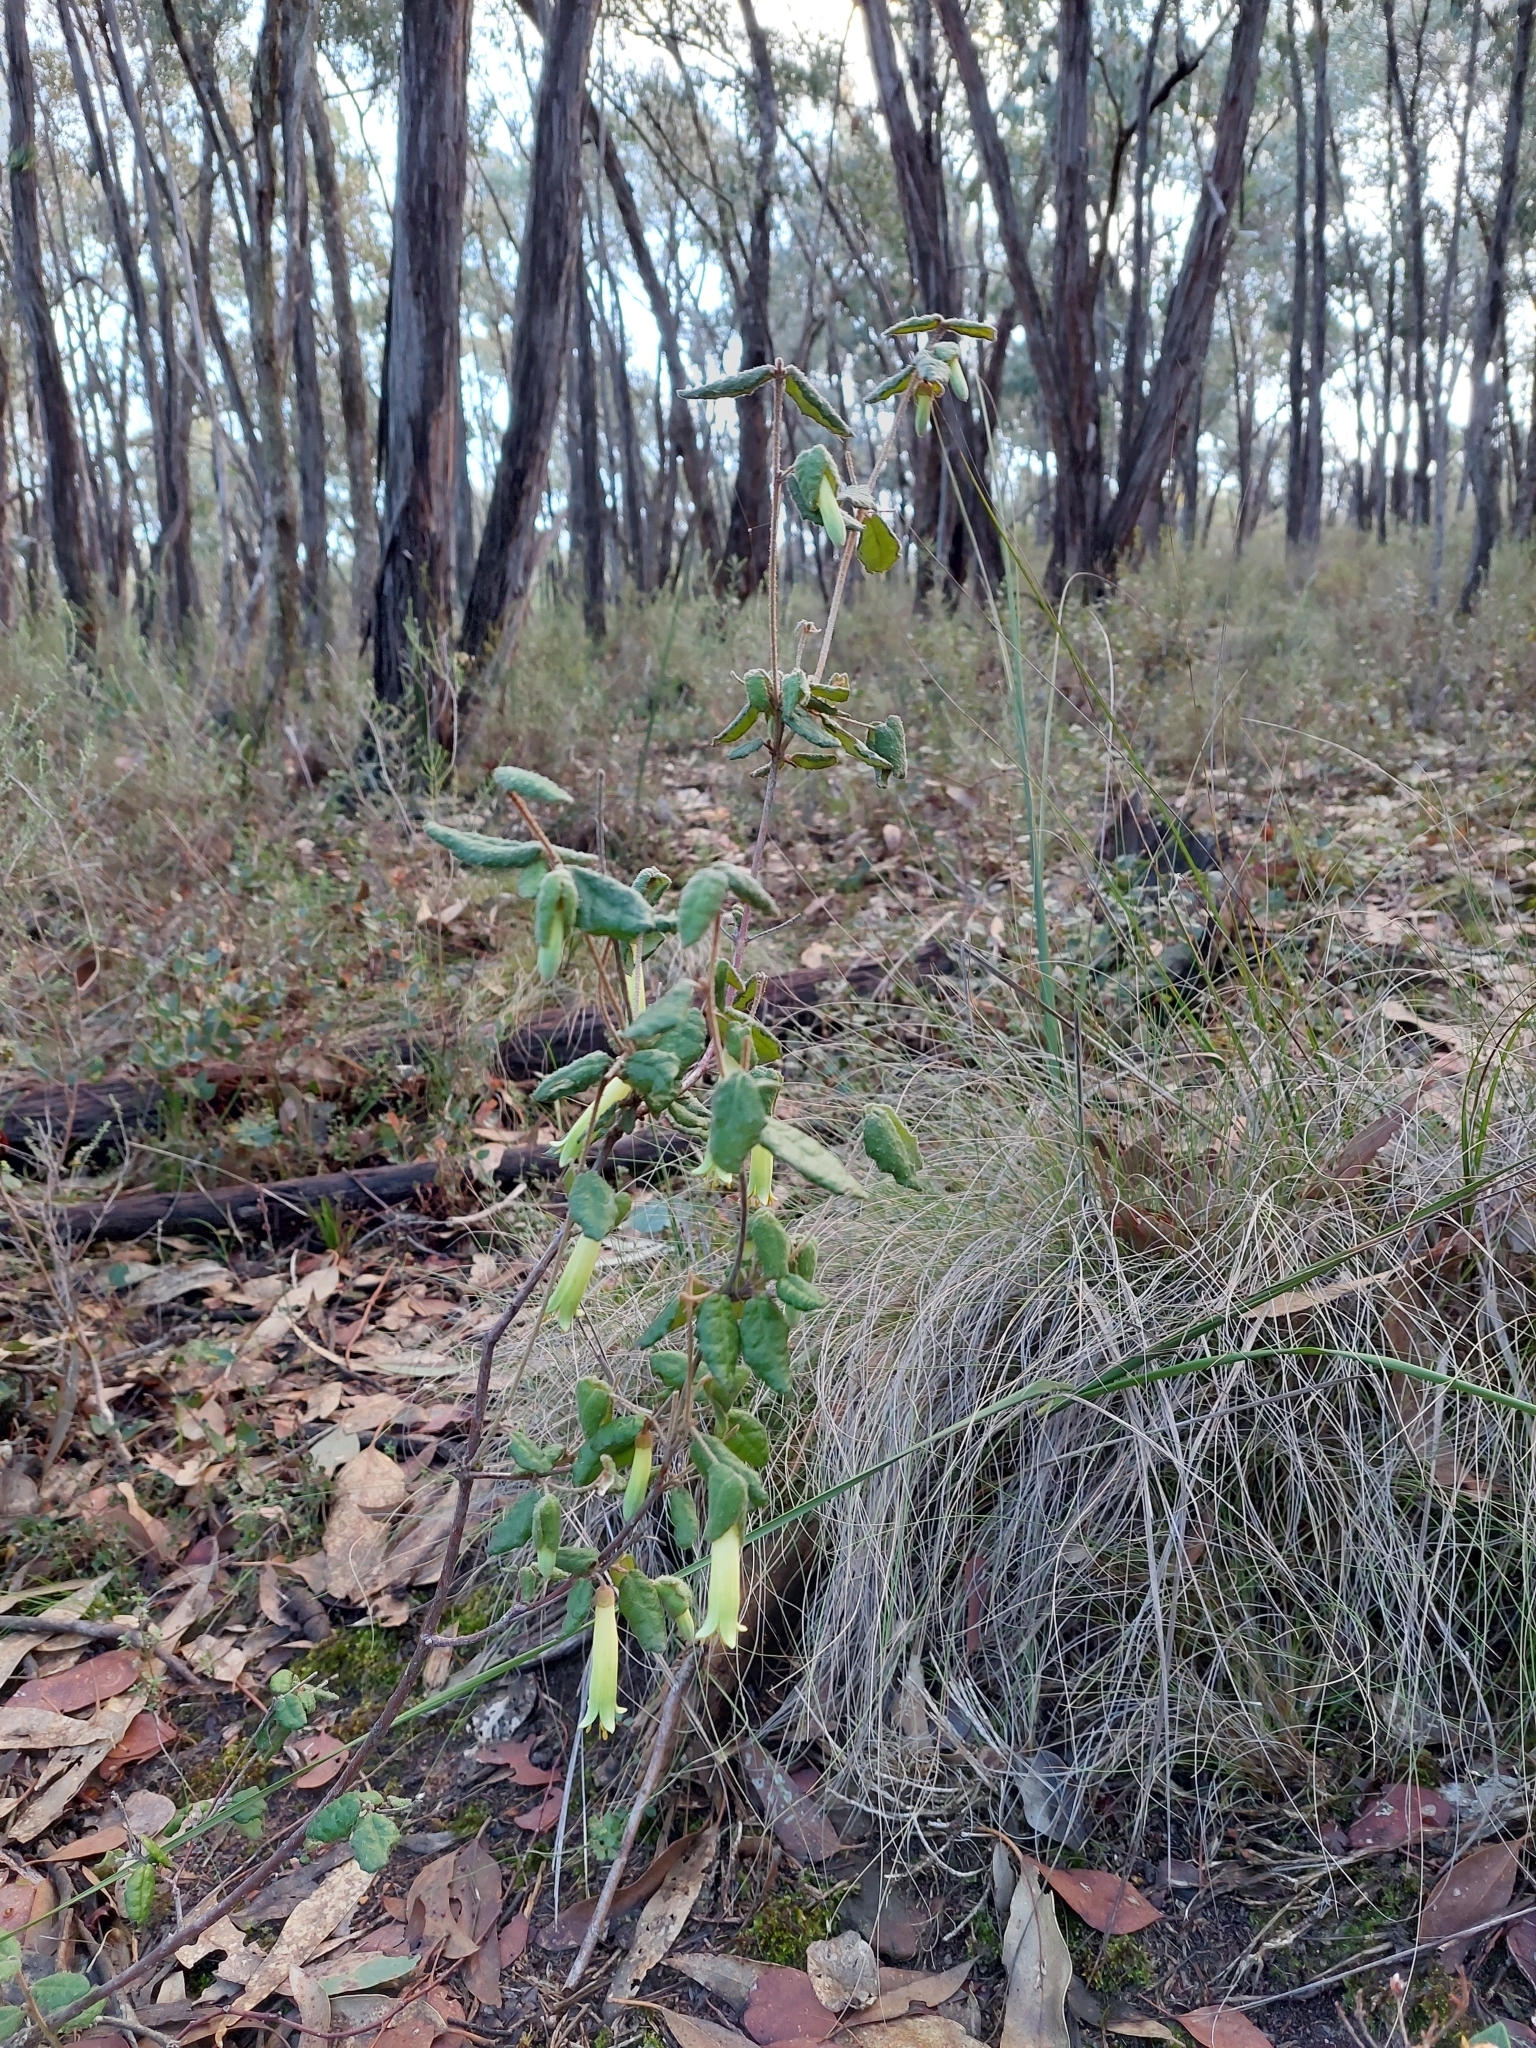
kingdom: Plantae
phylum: Tracheophyta
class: Magnoliopsida
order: Sapindales
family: Rutaceae
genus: Correa
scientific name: Correa reflexa
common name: Common correa
